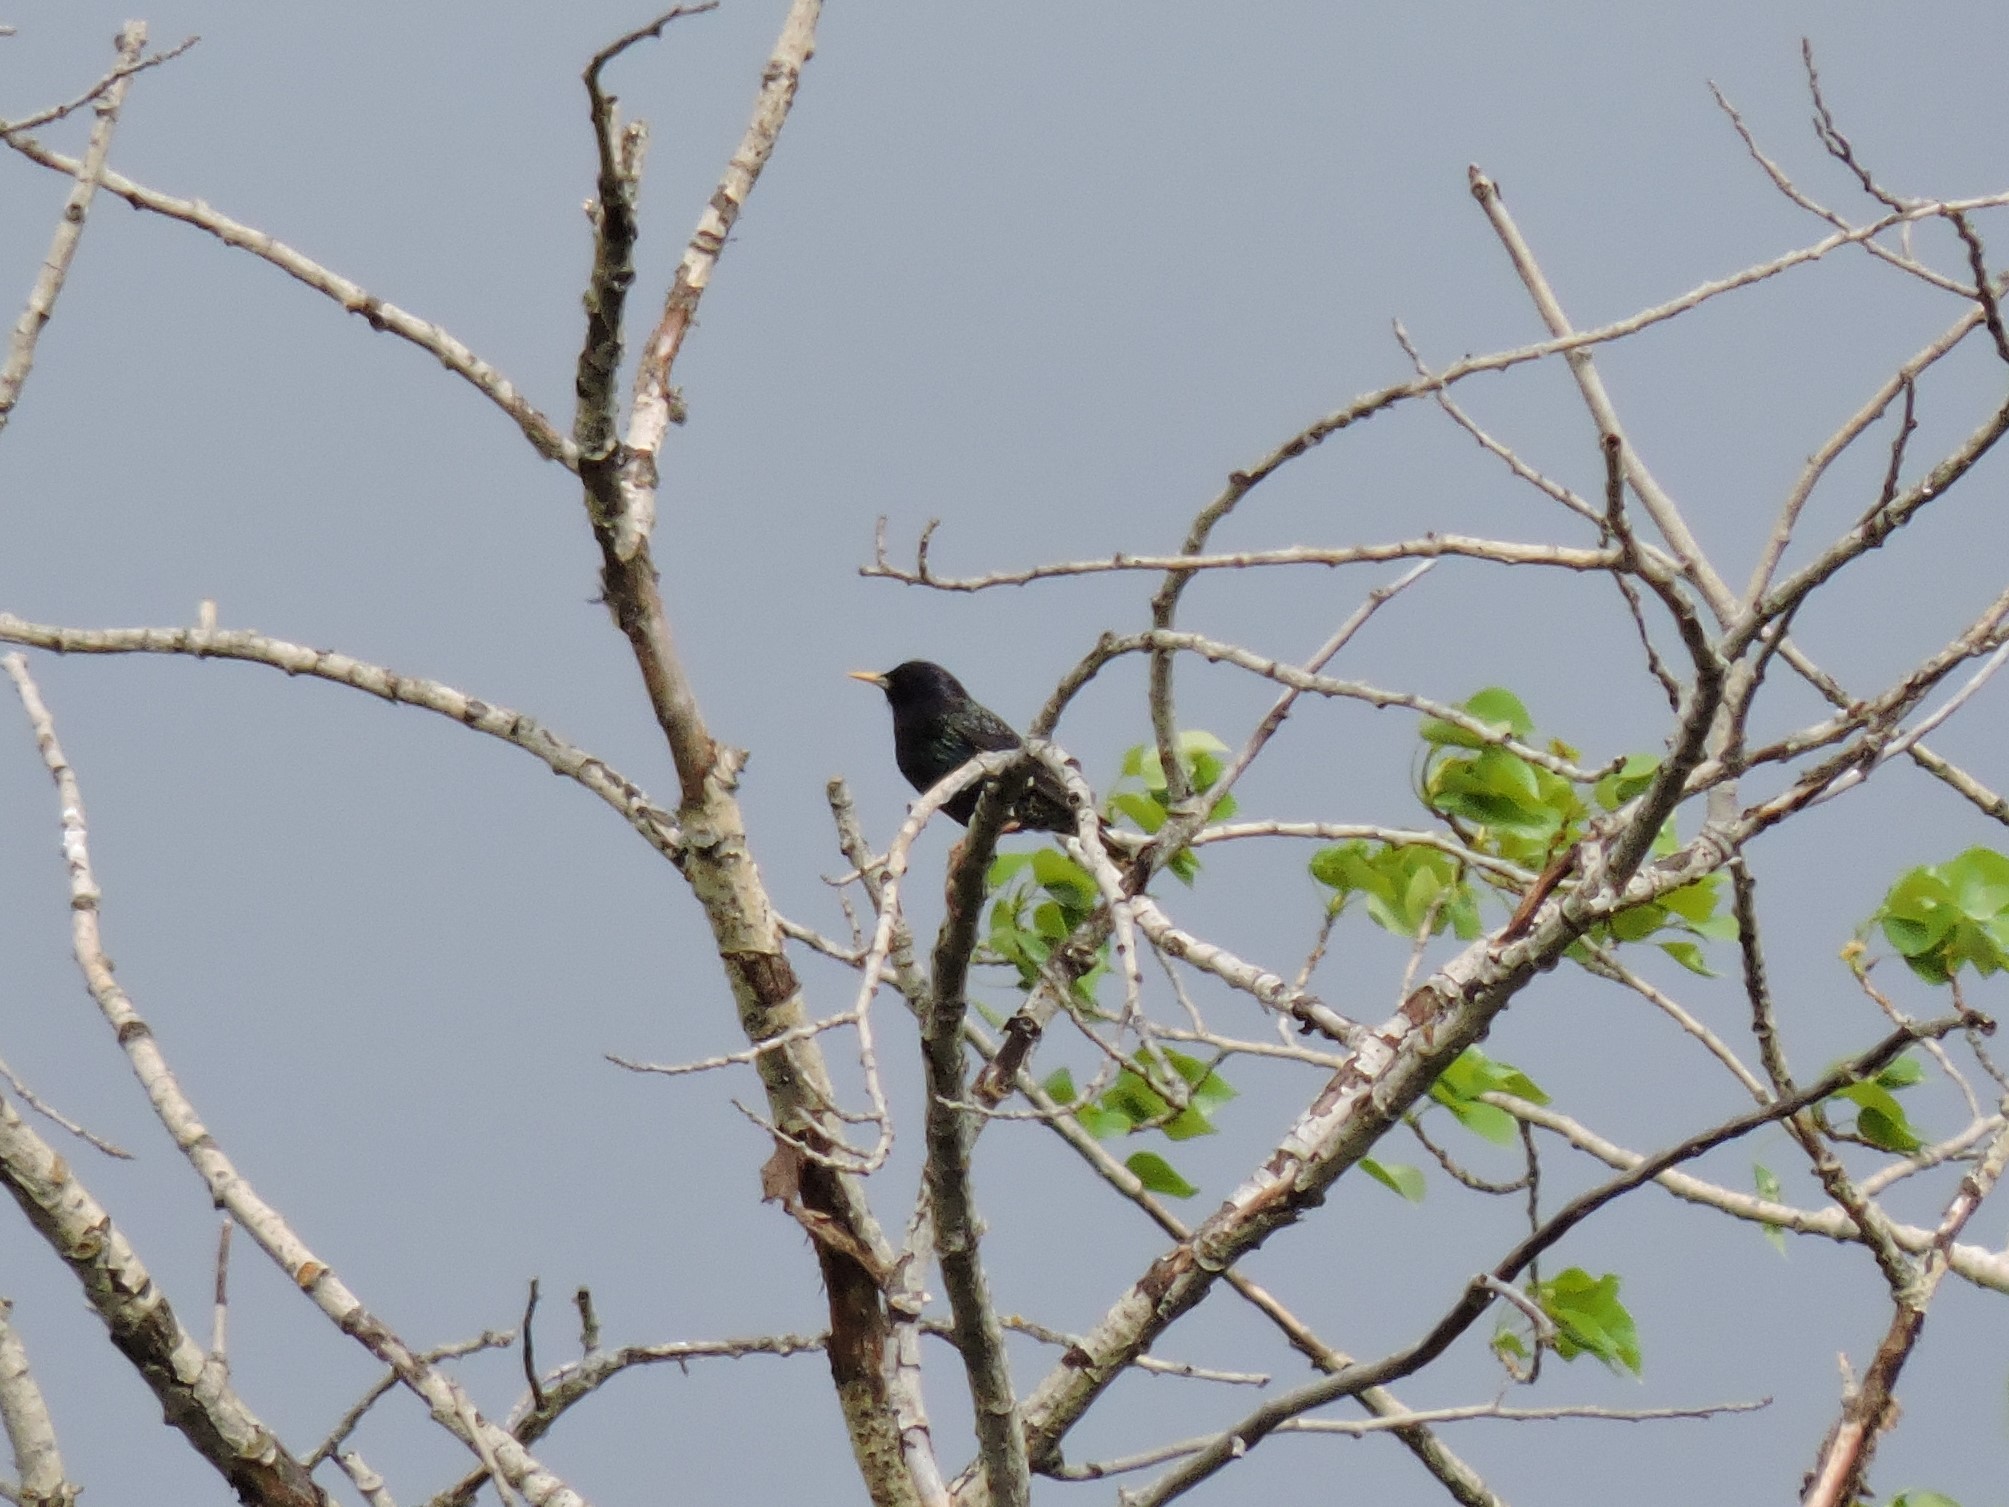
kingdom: Animalia
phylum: Chordata
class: Aves
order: Passeriformes
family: Sturnidae
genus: Sturnus
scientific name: Sturnus vulgaris
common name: Common starling
